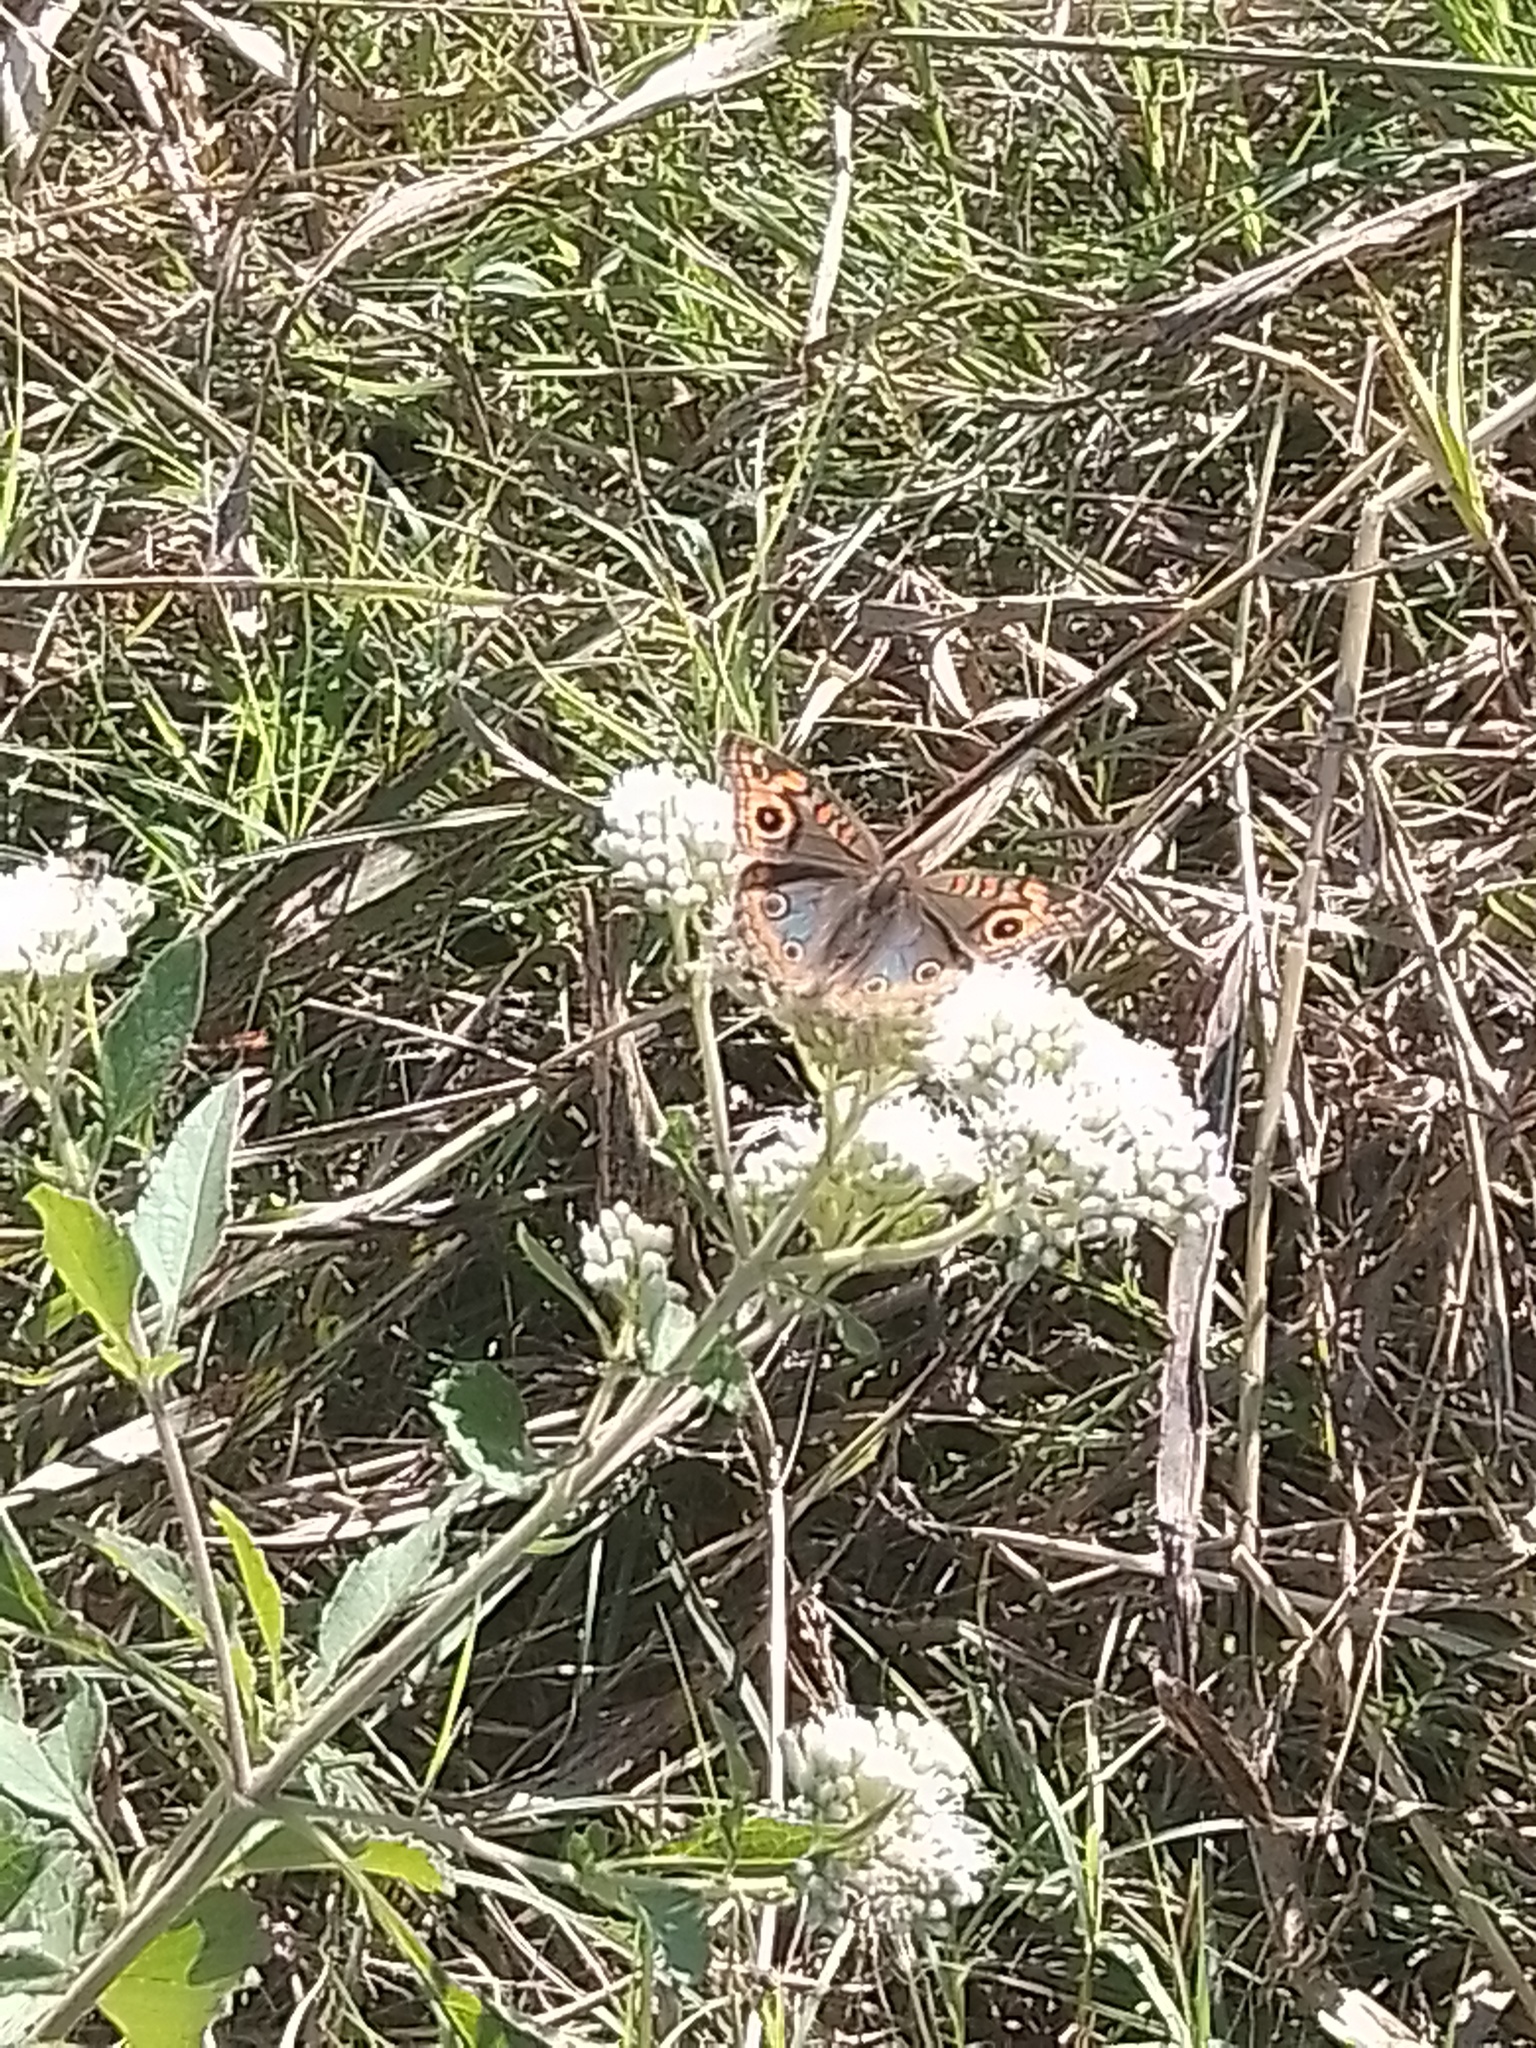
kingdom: Animalia
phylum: Arthropoda
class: Insecta
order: Lepidoptera
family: Nymphalidae
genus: Junonia
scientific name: Junonia lavinia
